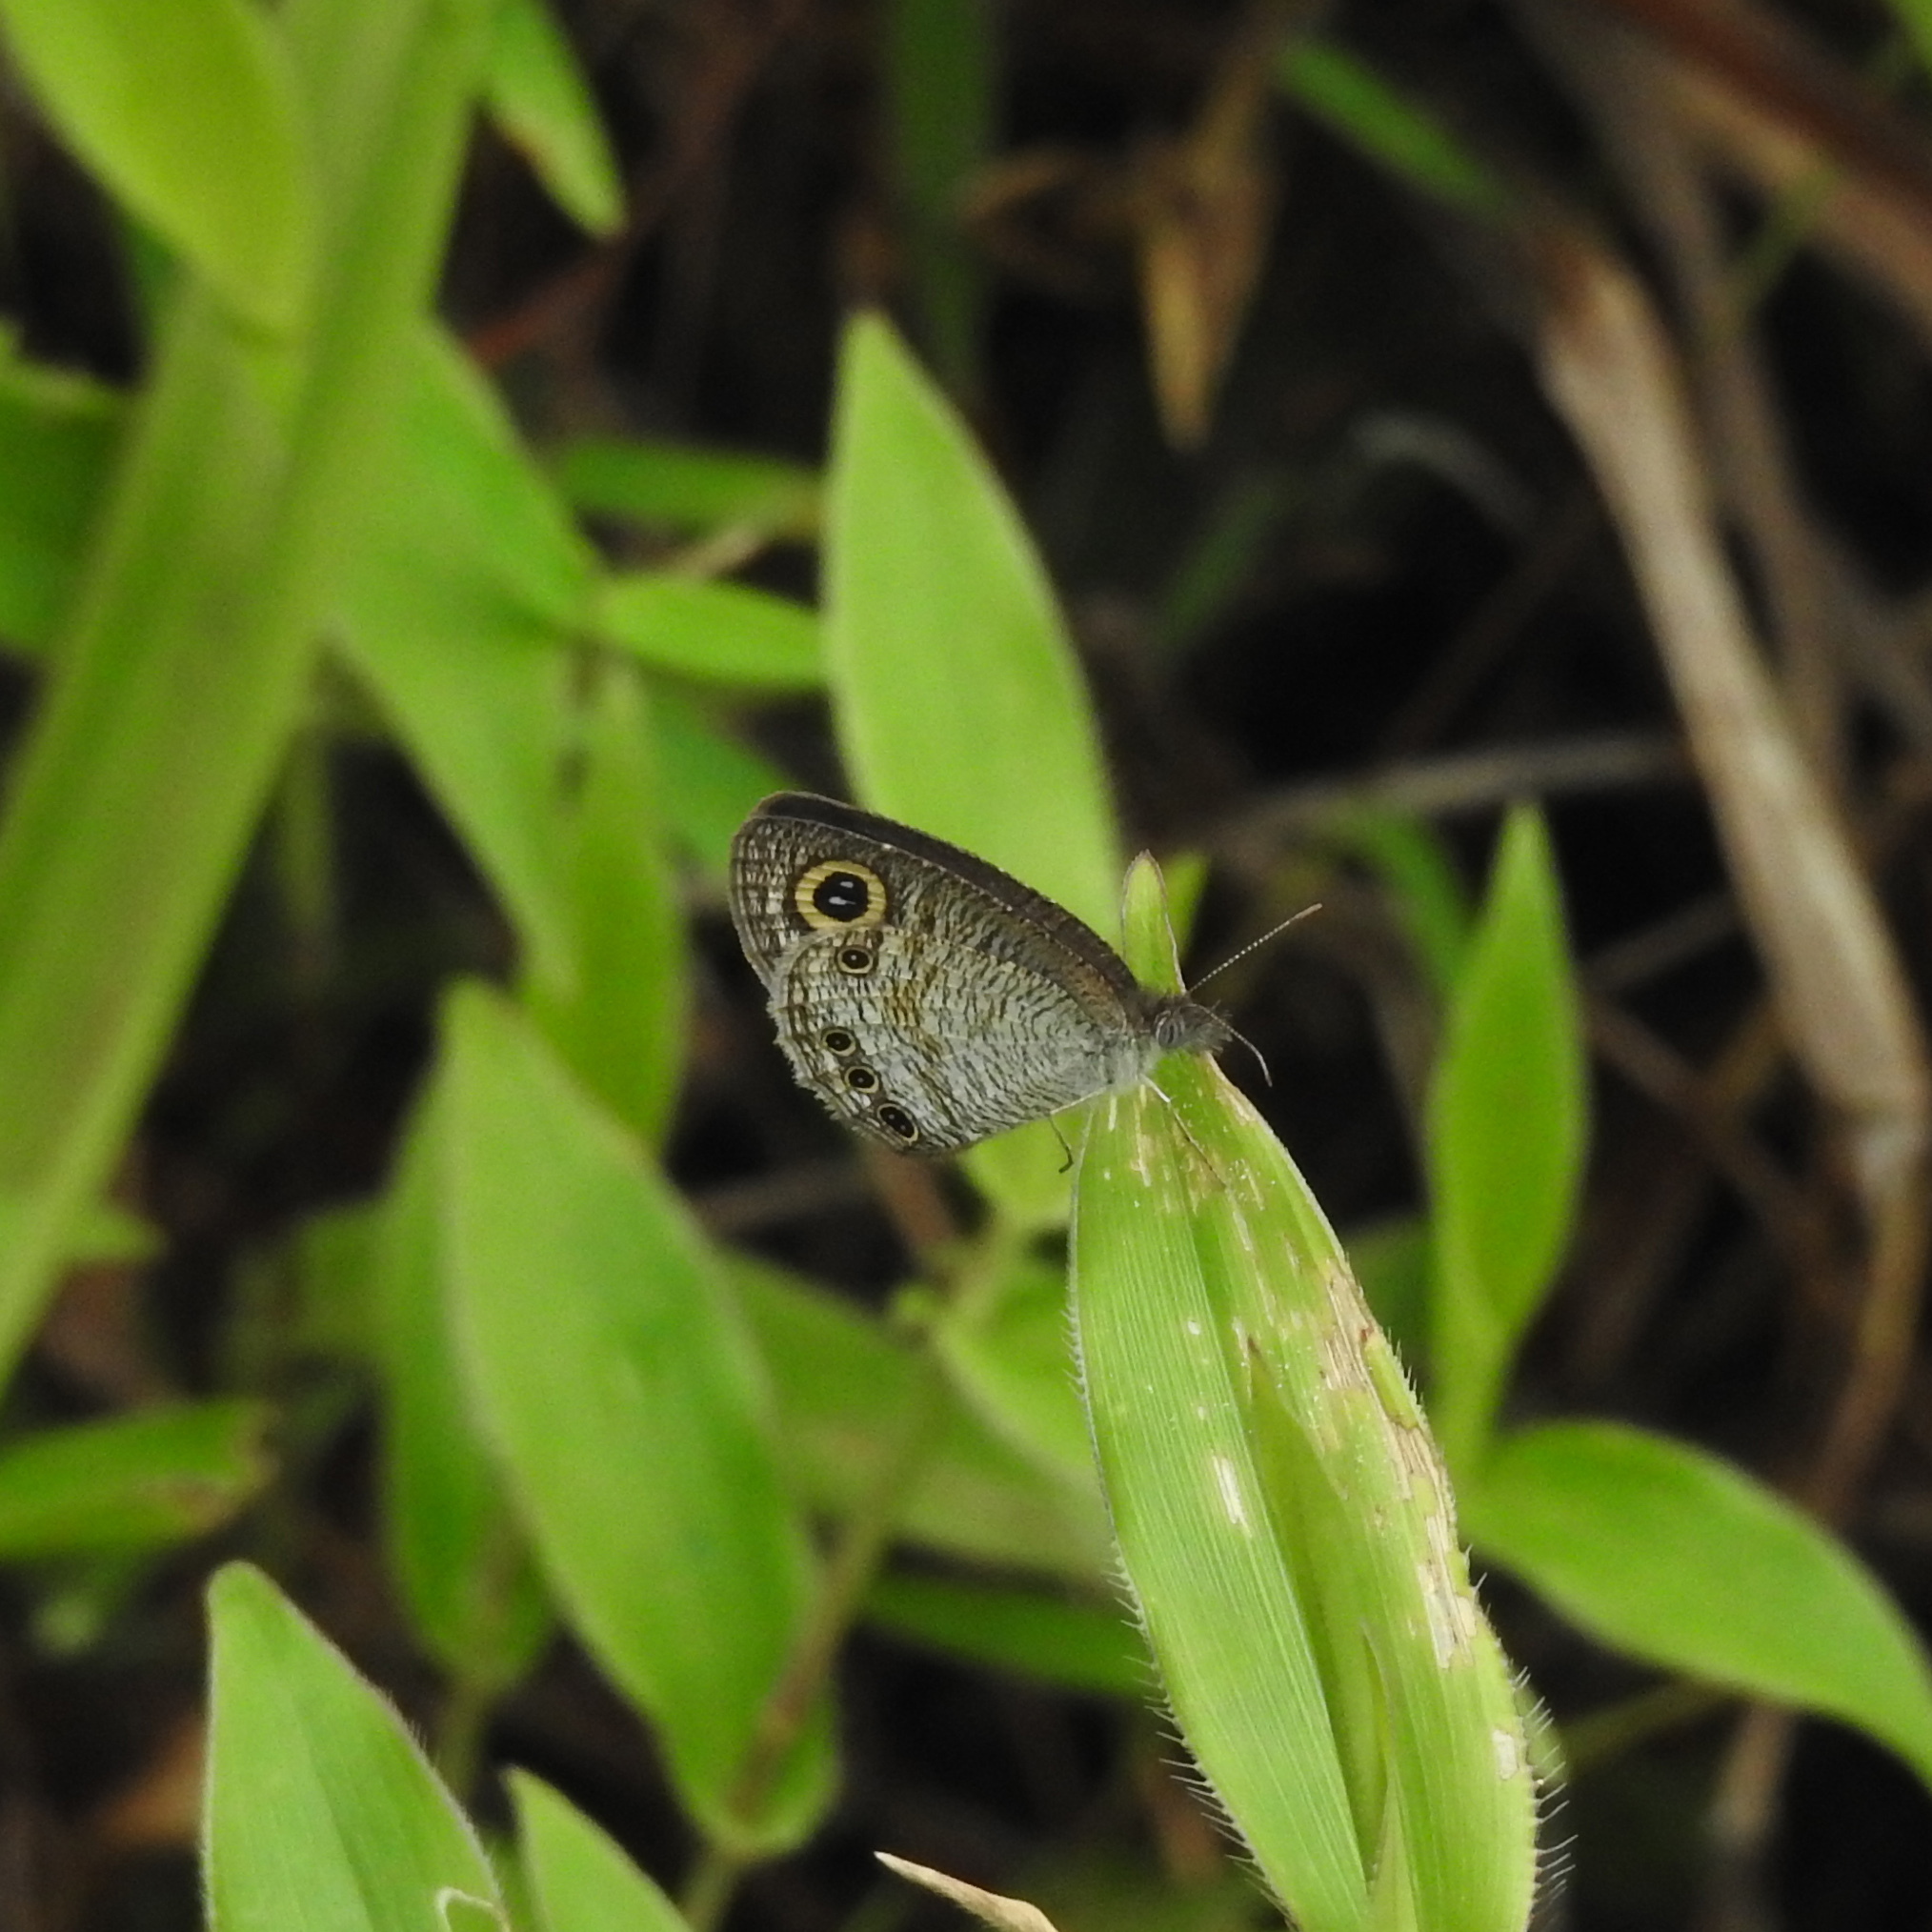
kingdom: Animalia
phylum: Arthropoda
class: Insecta
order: Lepidoptera
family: Nymphalidae
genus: Ypthima
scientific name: Ypthima huebneri
